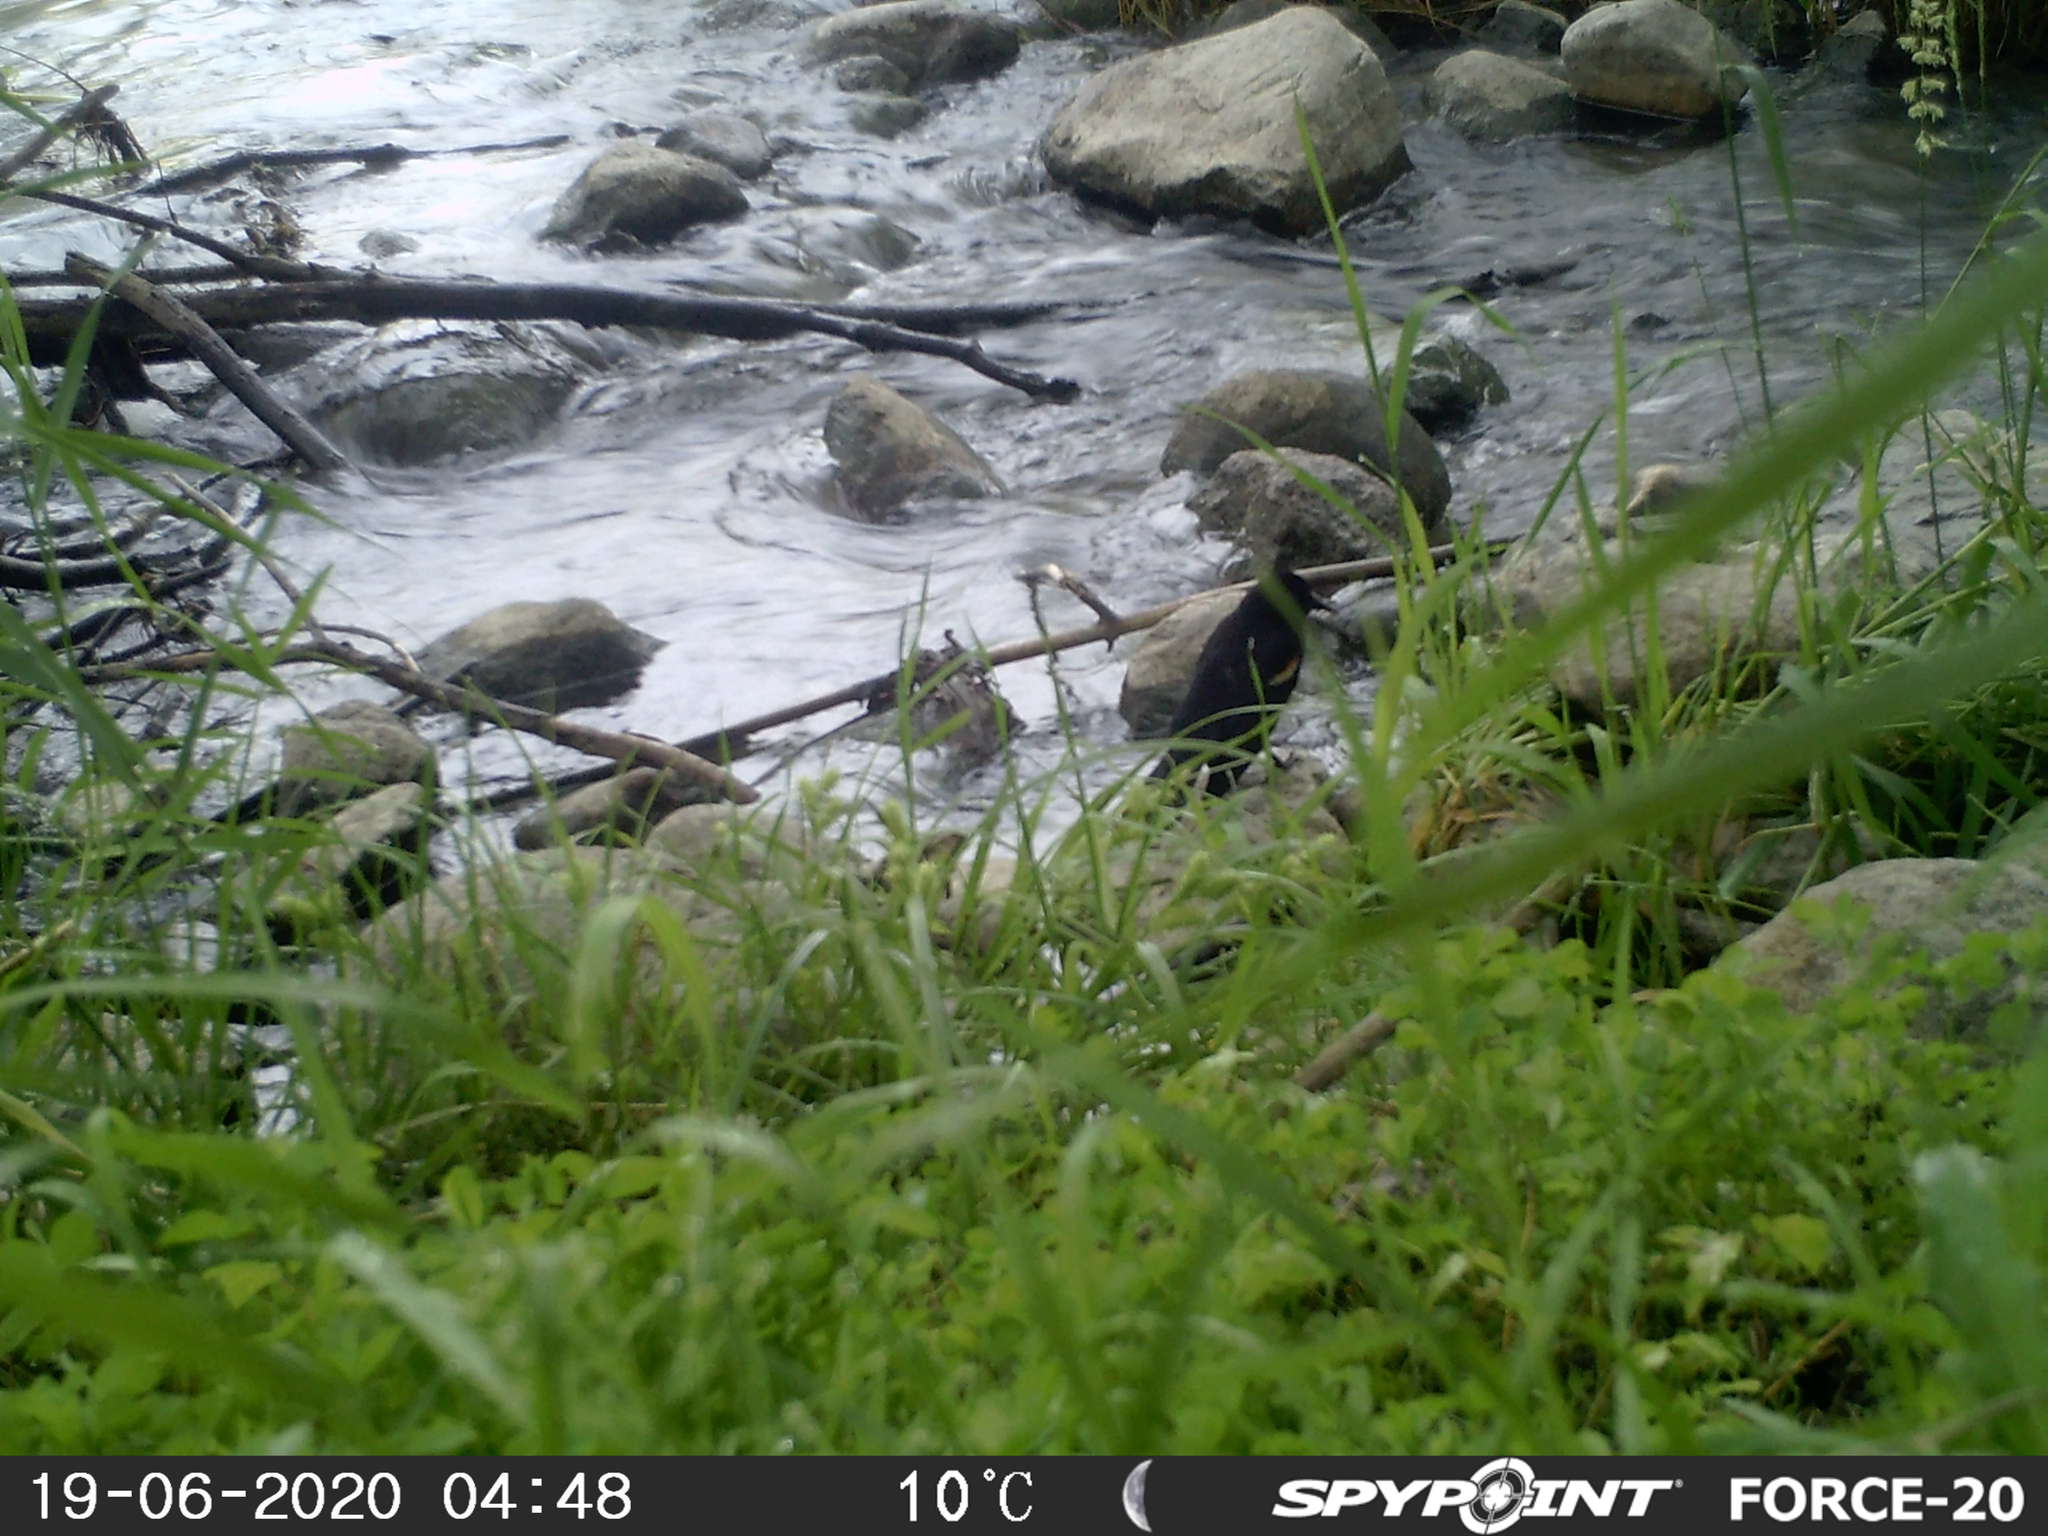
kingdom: Animalia
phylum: Chordata
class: Aves
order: Passeriformes
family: Icteridae
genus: Quiscalus
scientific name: Quiscalus quiscula
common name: Common grackle
